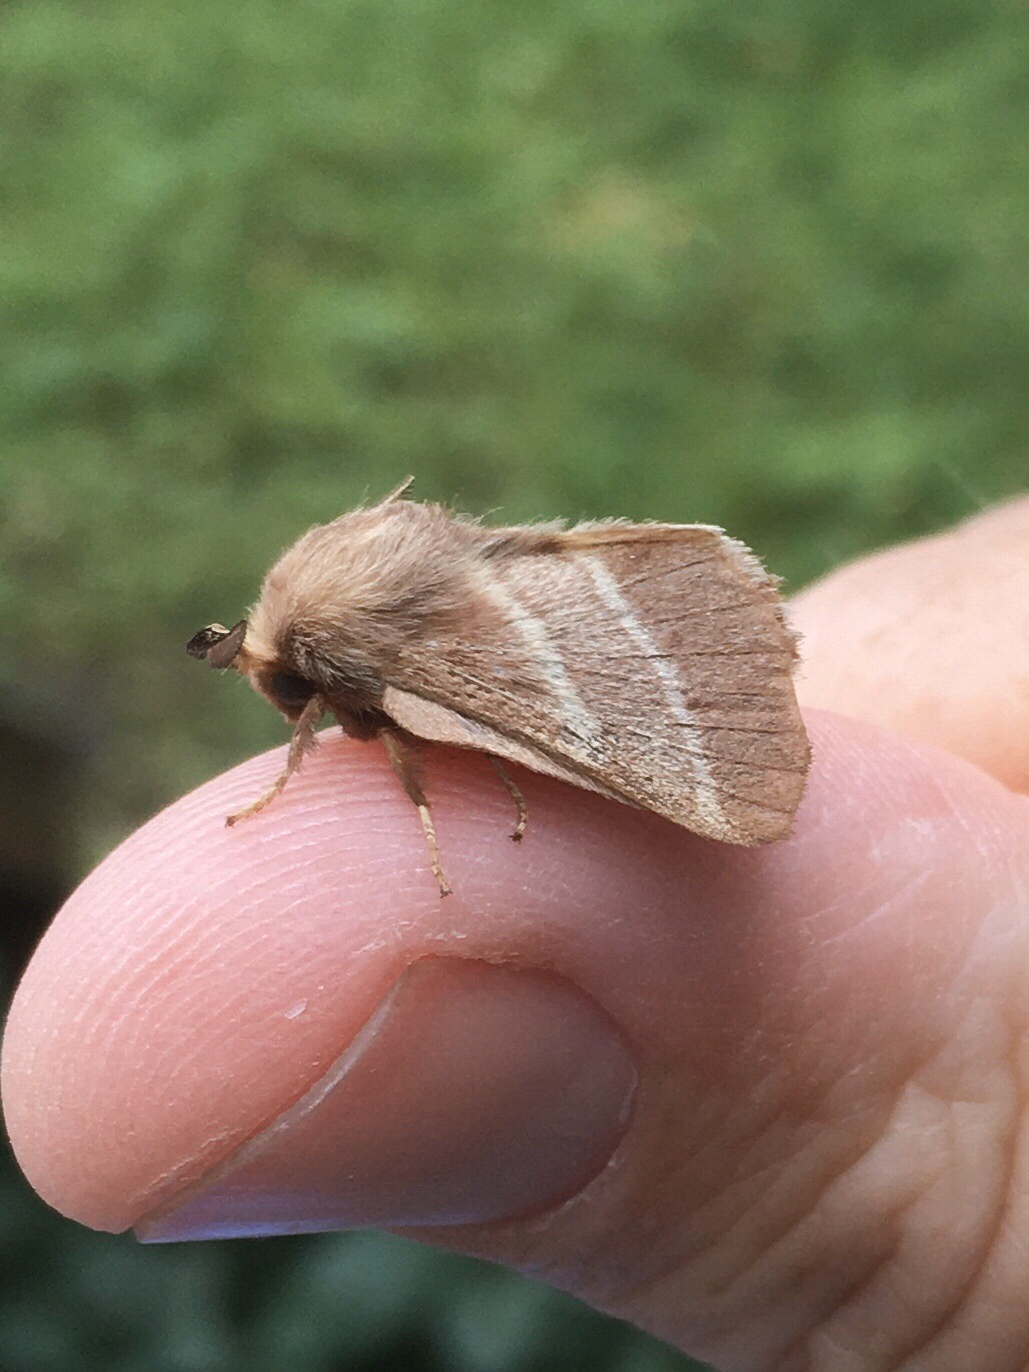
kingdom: Animalia
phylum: Arthropoda
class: Insecta
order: Lepidoptera
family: Lasiocampidae
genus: Malacosoma
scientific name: Malacosoma americana
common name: Eastern tent caterpillar moth
